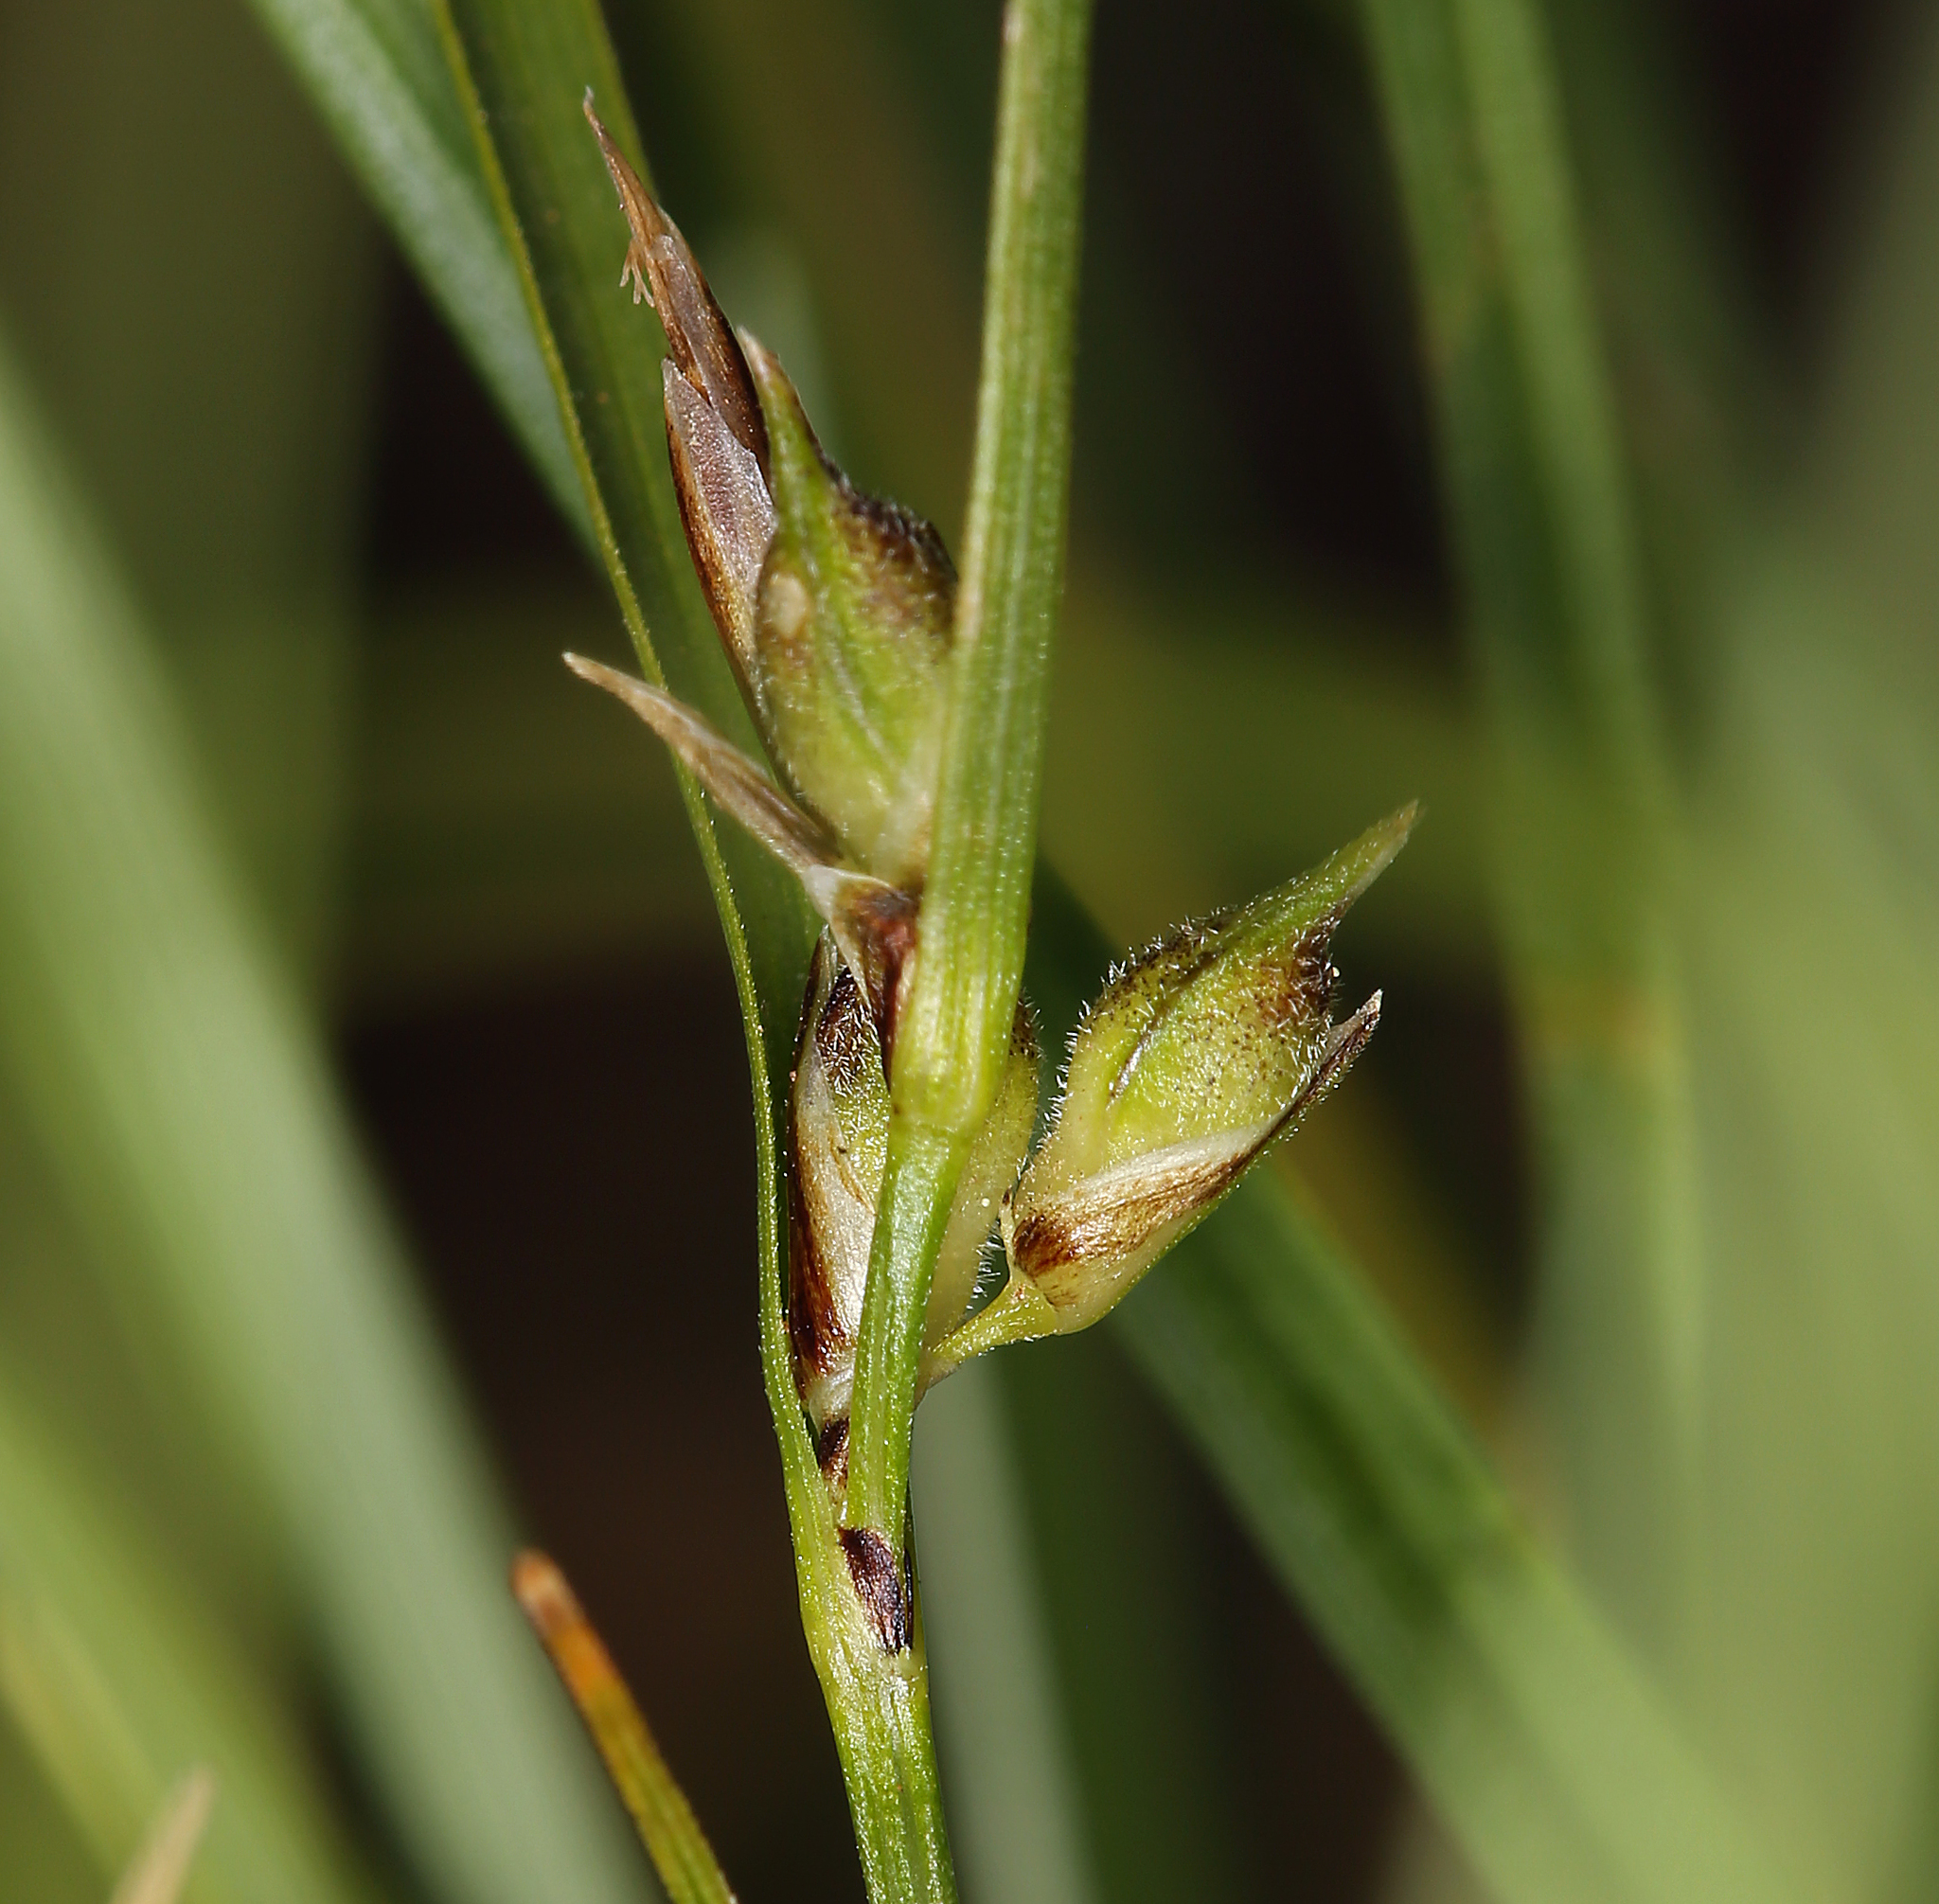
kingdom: Plantae
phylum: Tracheophyta
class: Liliopsida
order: Poales
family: Cyperaceae
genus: Carex
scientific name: Carex rossii
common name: Ross' sedge
